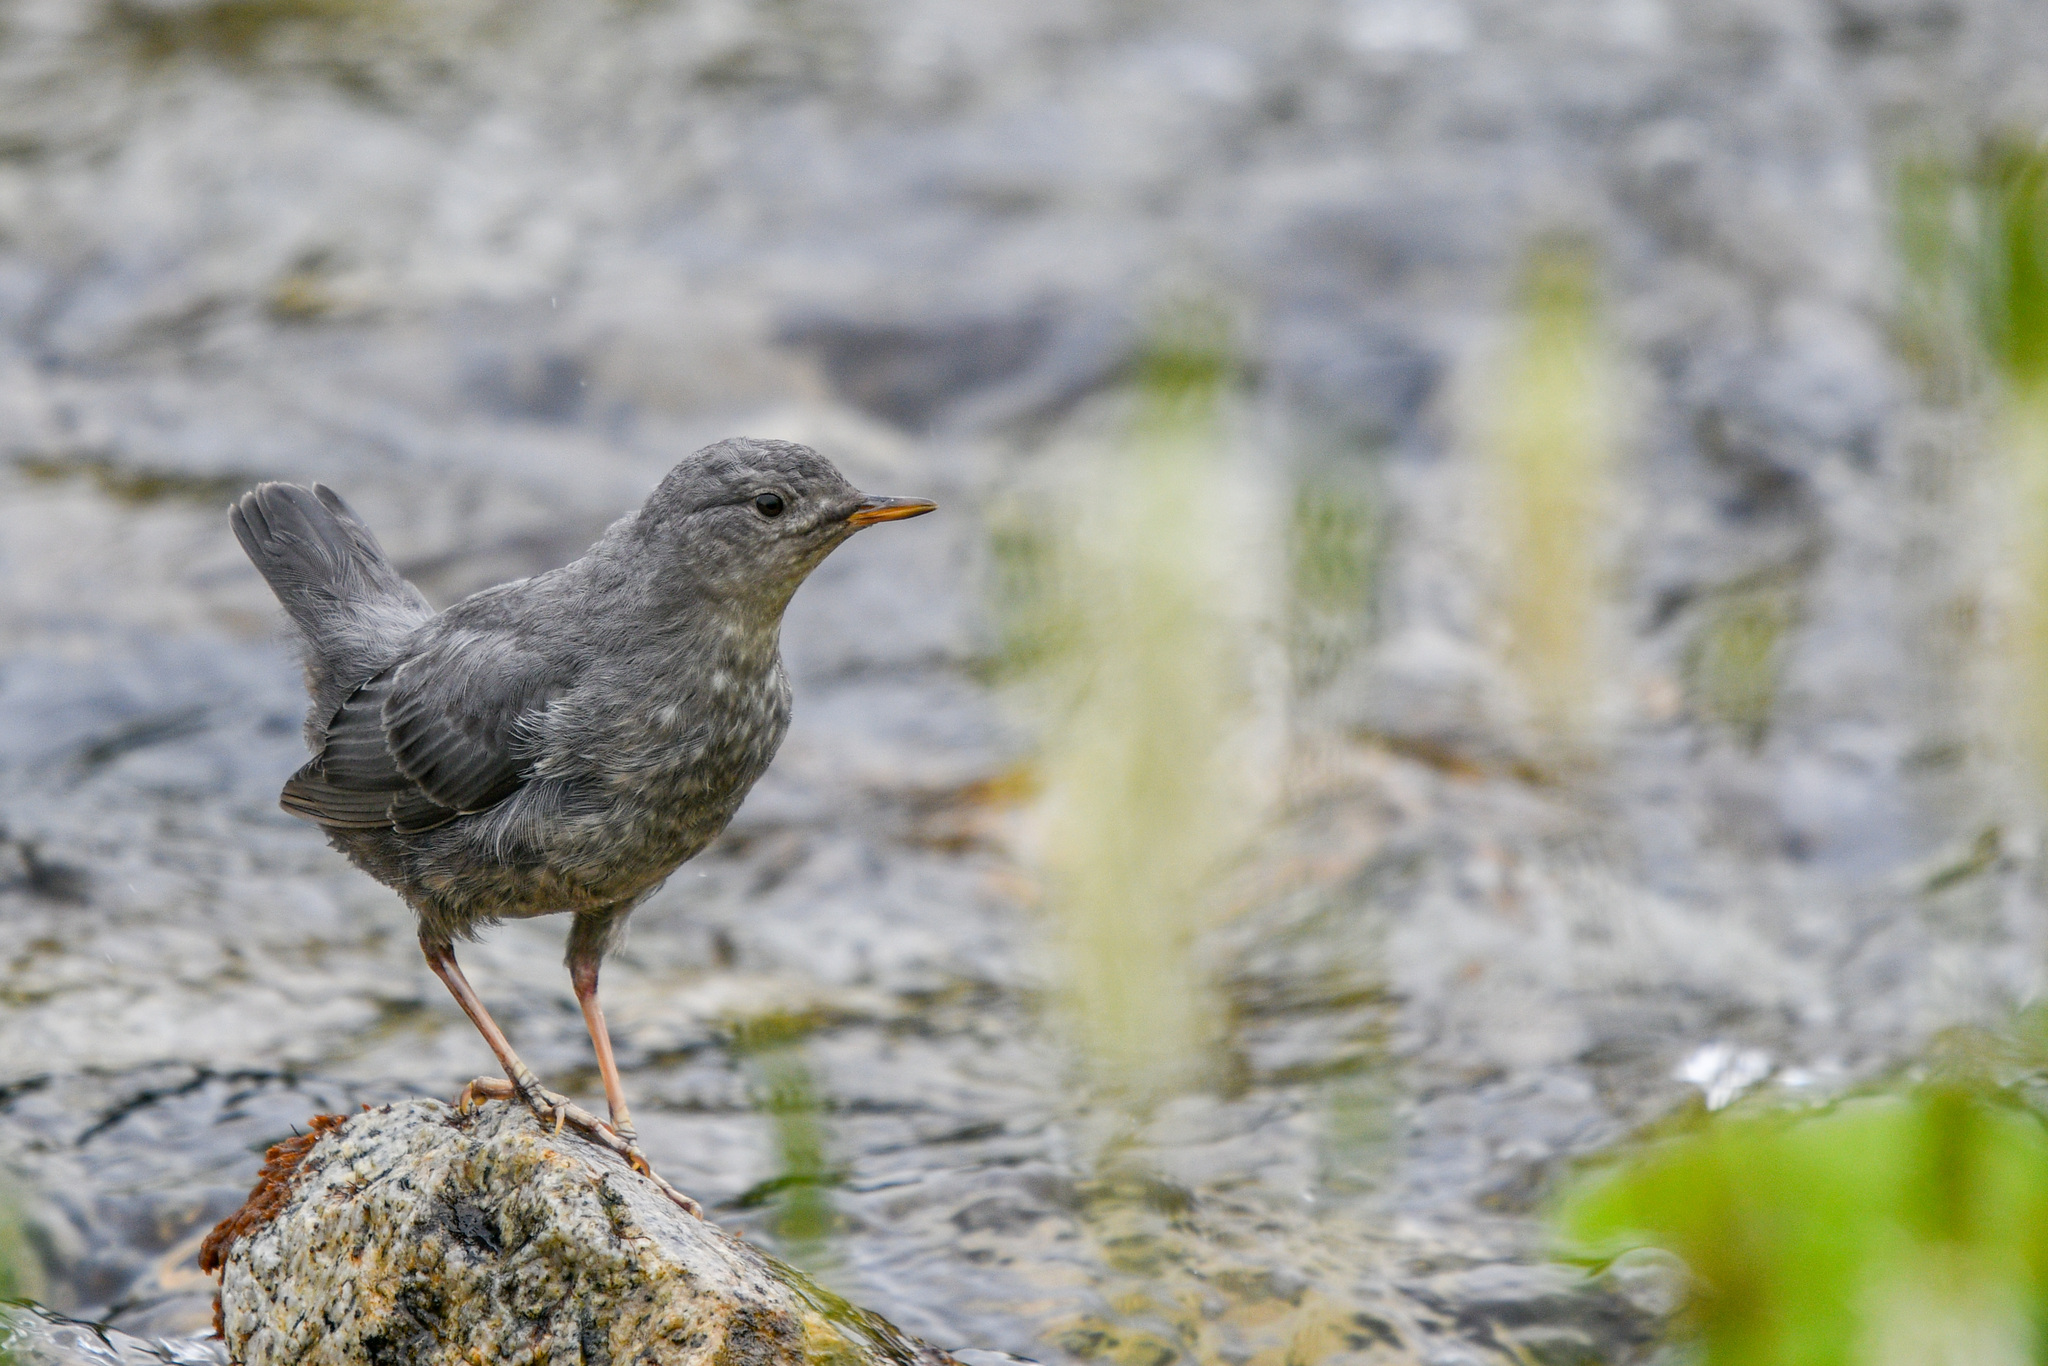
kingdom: Animalia
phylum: Chordata
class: Aves
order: Passeriformes
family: Cinclidae
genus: Cinclus
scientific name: Cinclus mexicanus
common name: American dipper
